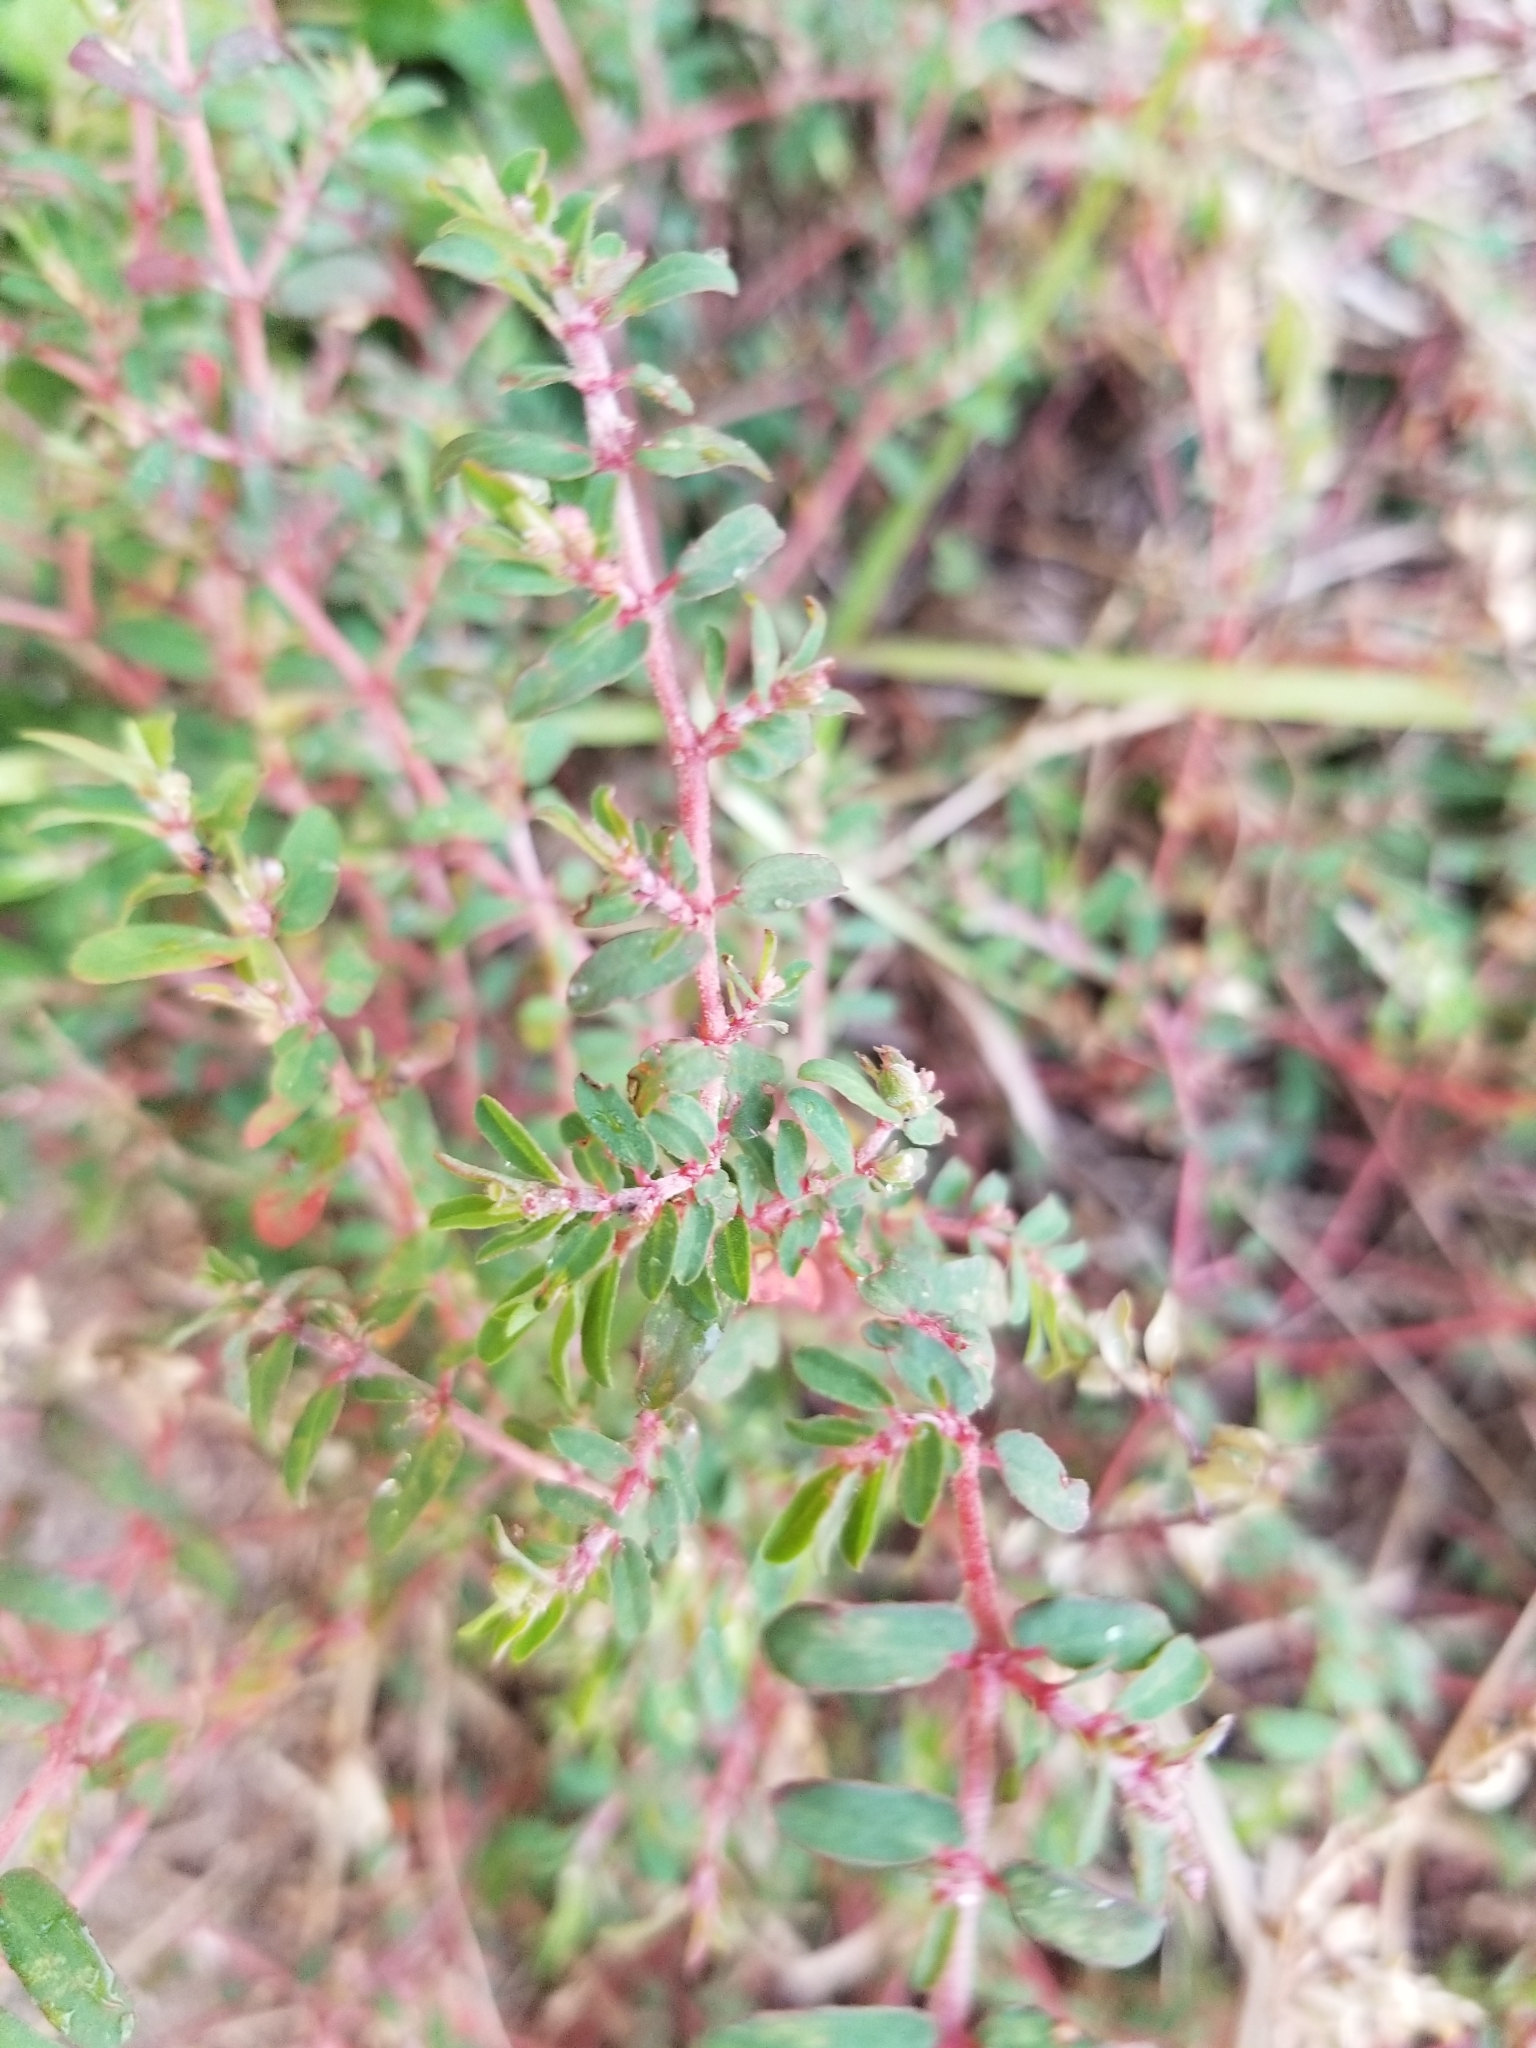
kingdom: Plantae
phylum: Tracheophyta
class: Magnoliopsida
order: Malpighiales
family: Euphorbiaceae
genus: Euphorbia
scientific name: Euphorbia maculata
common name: Spotted spurge
